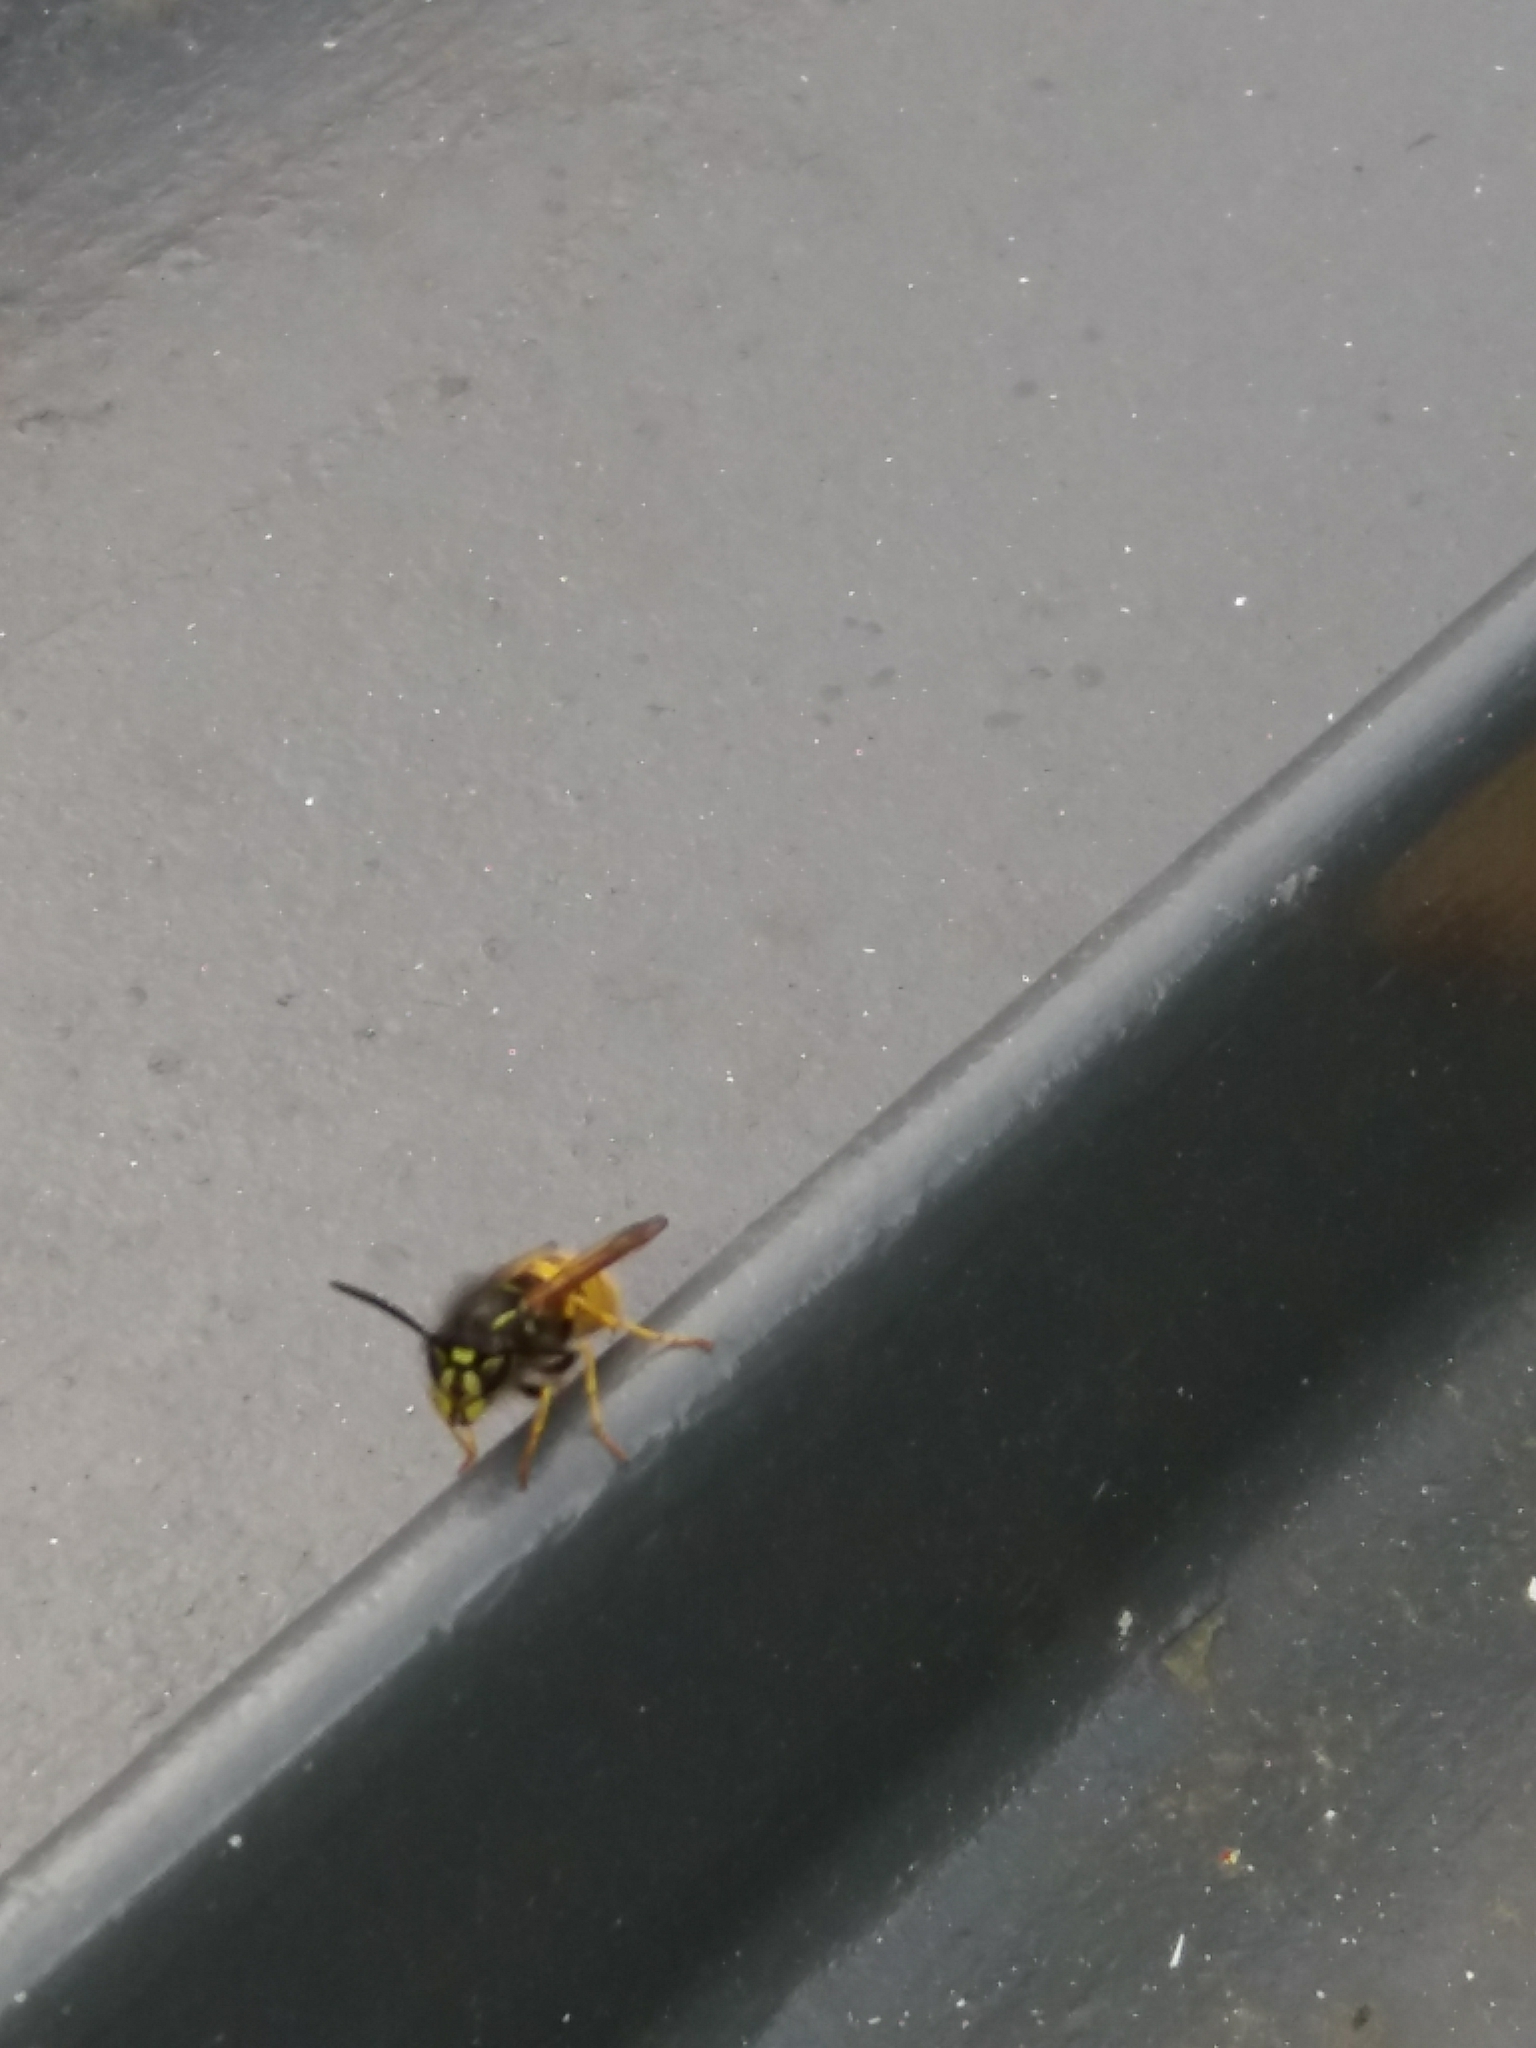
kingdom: Animalia
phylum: Arthropoda
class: Insecta
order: Hymenoptera
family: Vespidae
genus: Vespula
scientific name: Vespula vulgaris
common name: Common wasp
